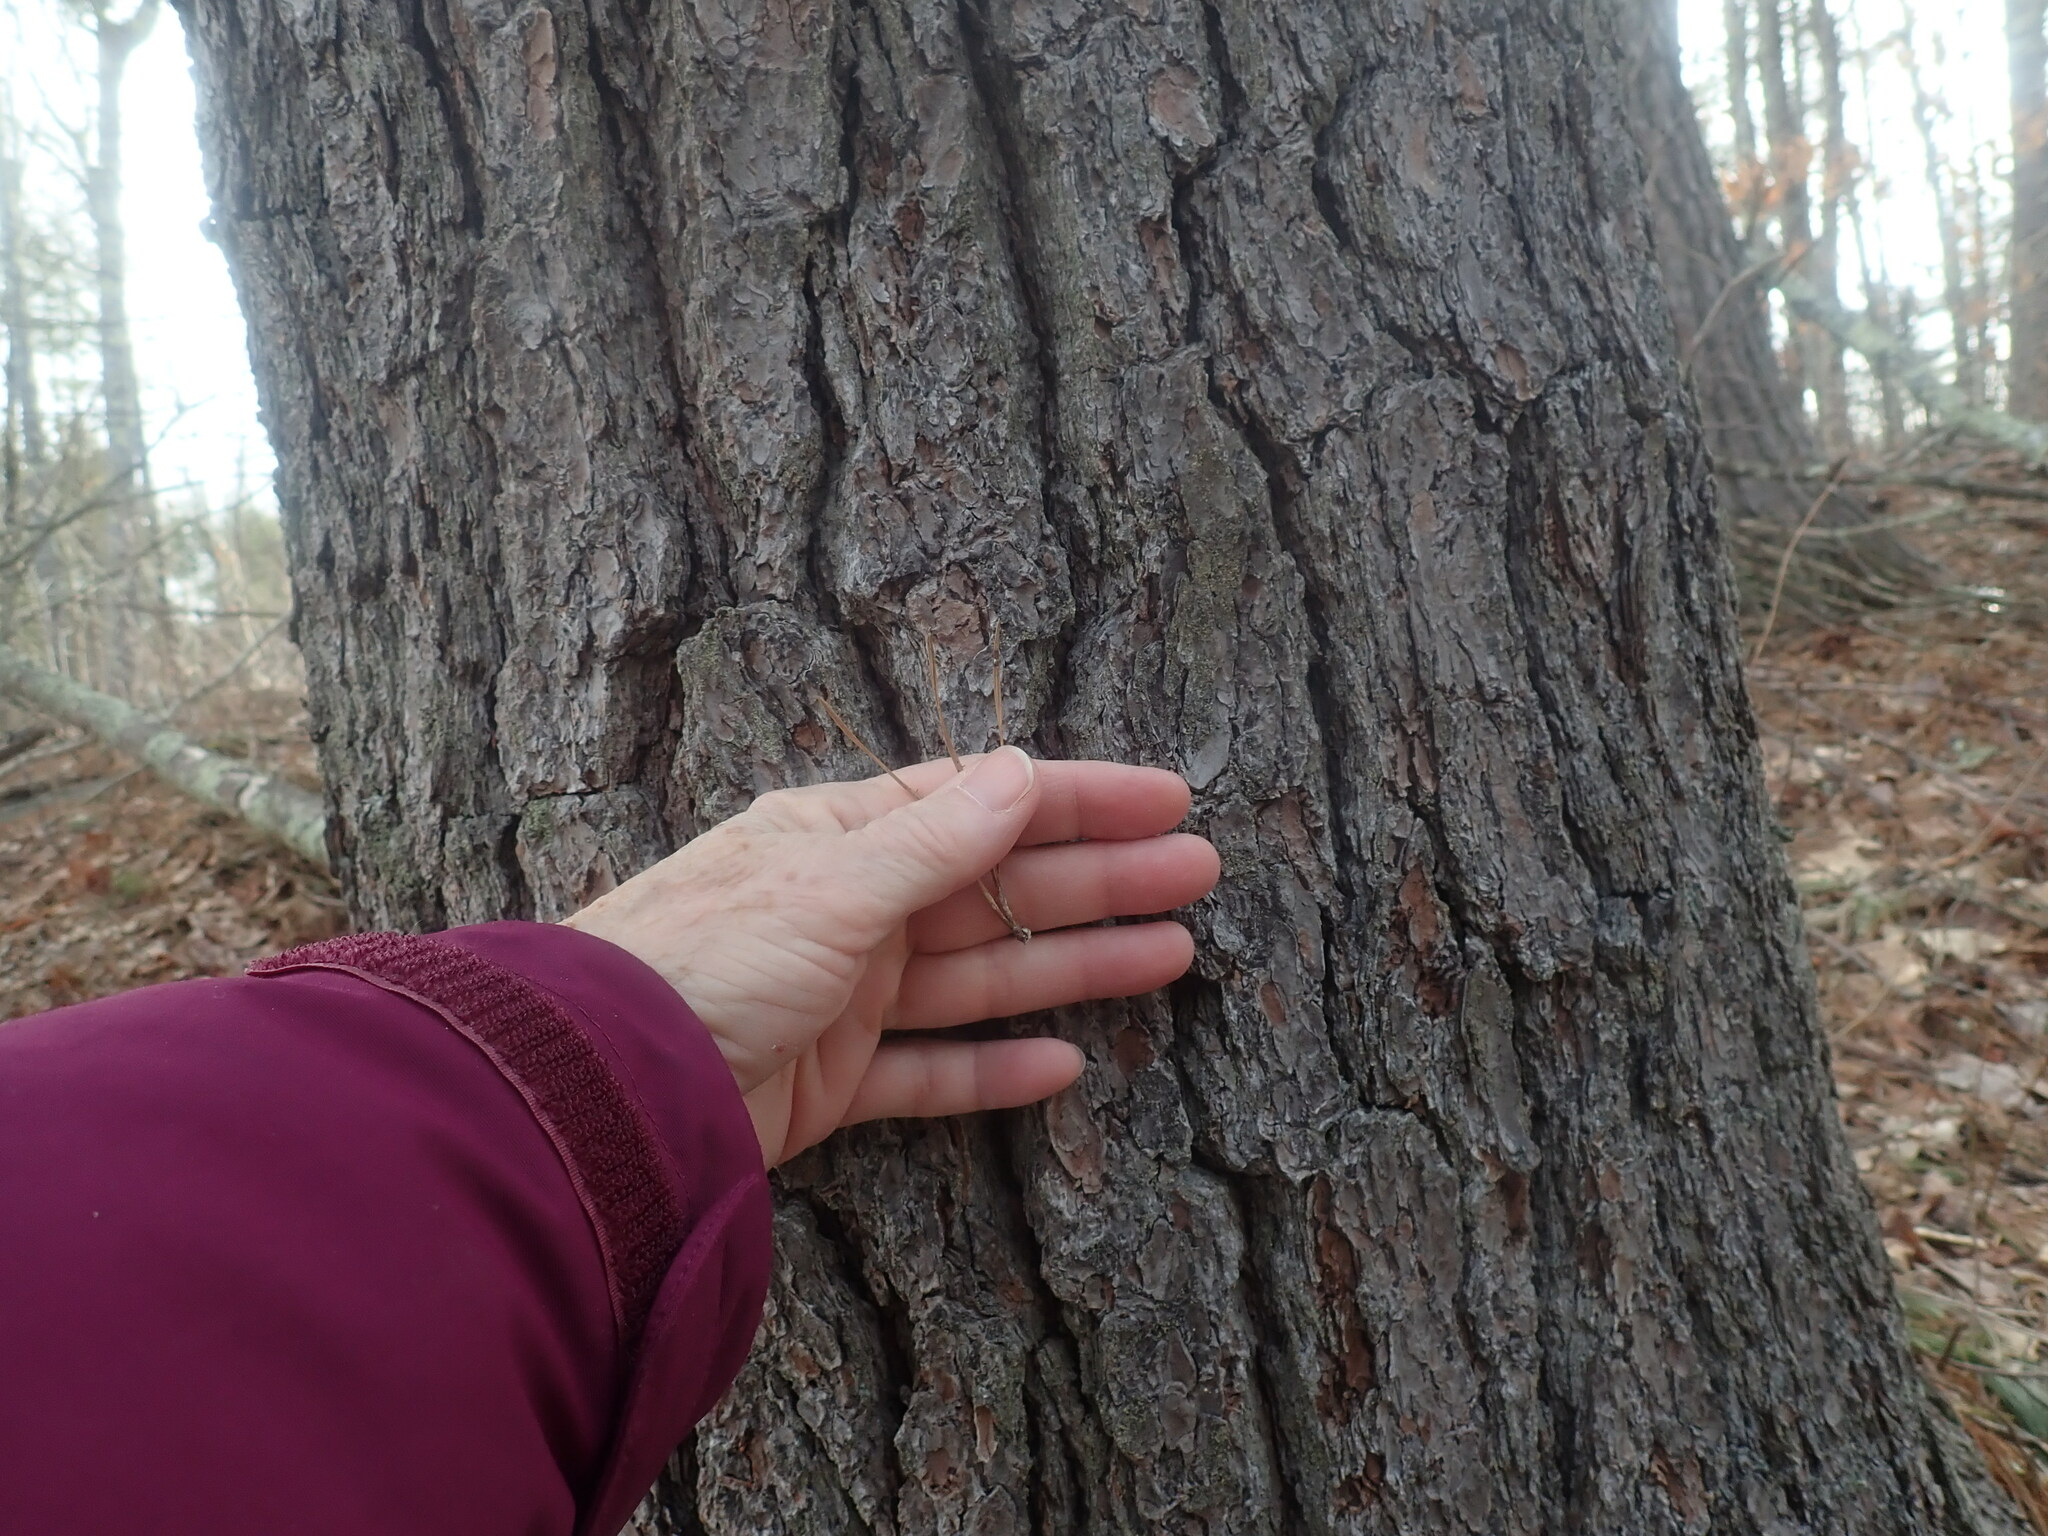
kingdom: Plantae
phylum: Tracheophyta
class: Pinopsida
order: Pinales
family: Pinaceae
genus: Pinus
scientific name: Pinus rigida
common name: Pitch pine
